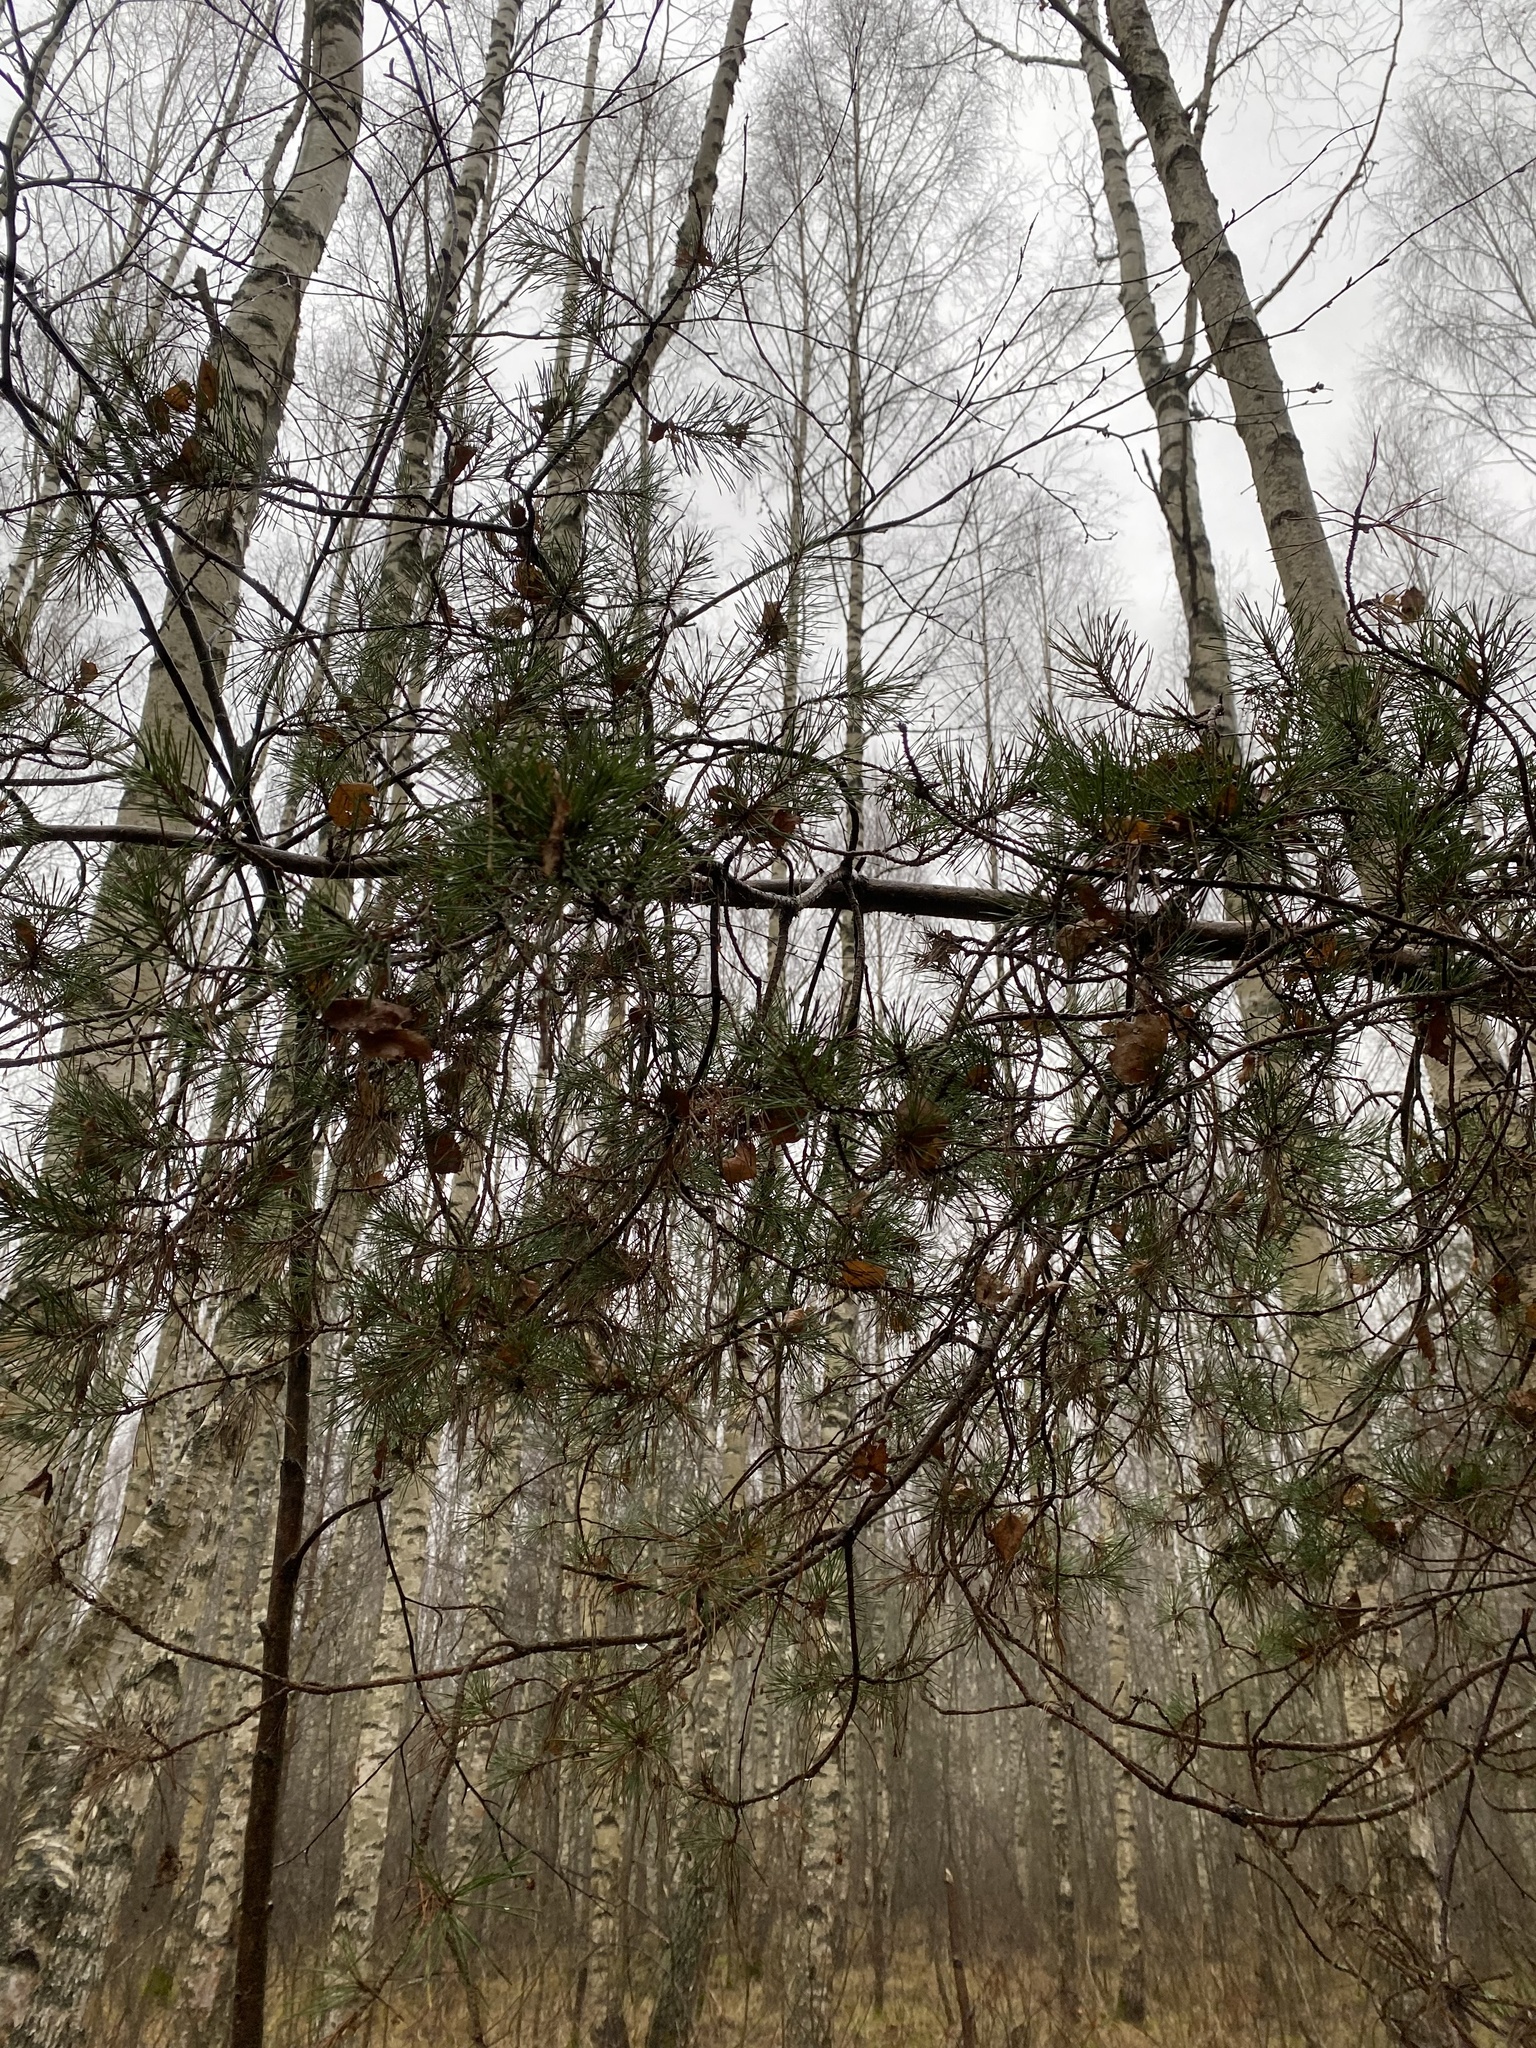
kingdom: Plantae
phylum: Tracheophyta
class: Pinopsida
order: Pinales
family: Pinaceae
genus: Pinus
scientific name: Pinus sylvestris
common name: Scots pine
